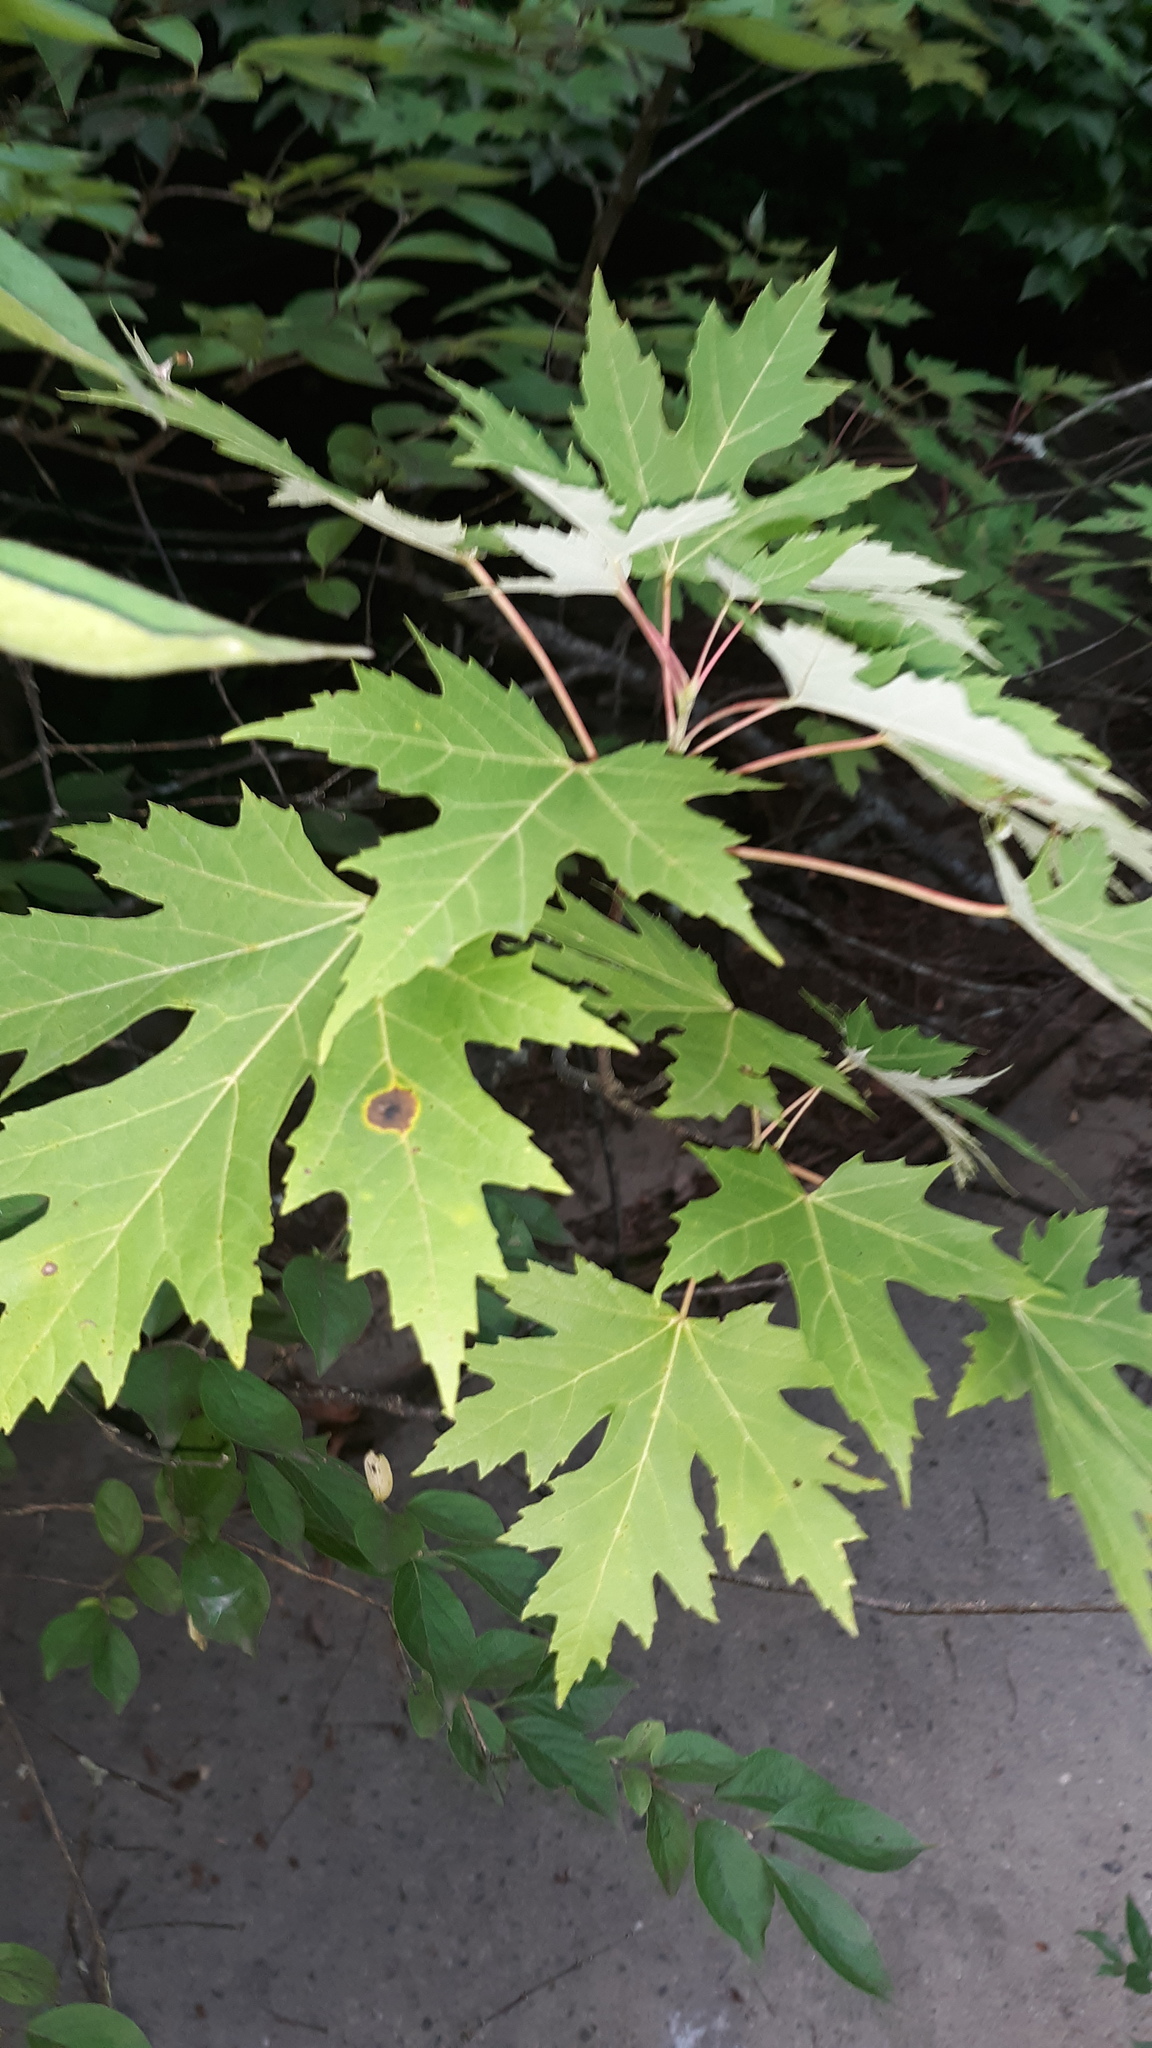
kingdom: Plantae
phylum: Tracheophyta
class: Magnoliopsida
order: Sapindales
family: Sapindaceae
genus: Acer
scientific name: Acer saccharinum
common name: Silver maple
